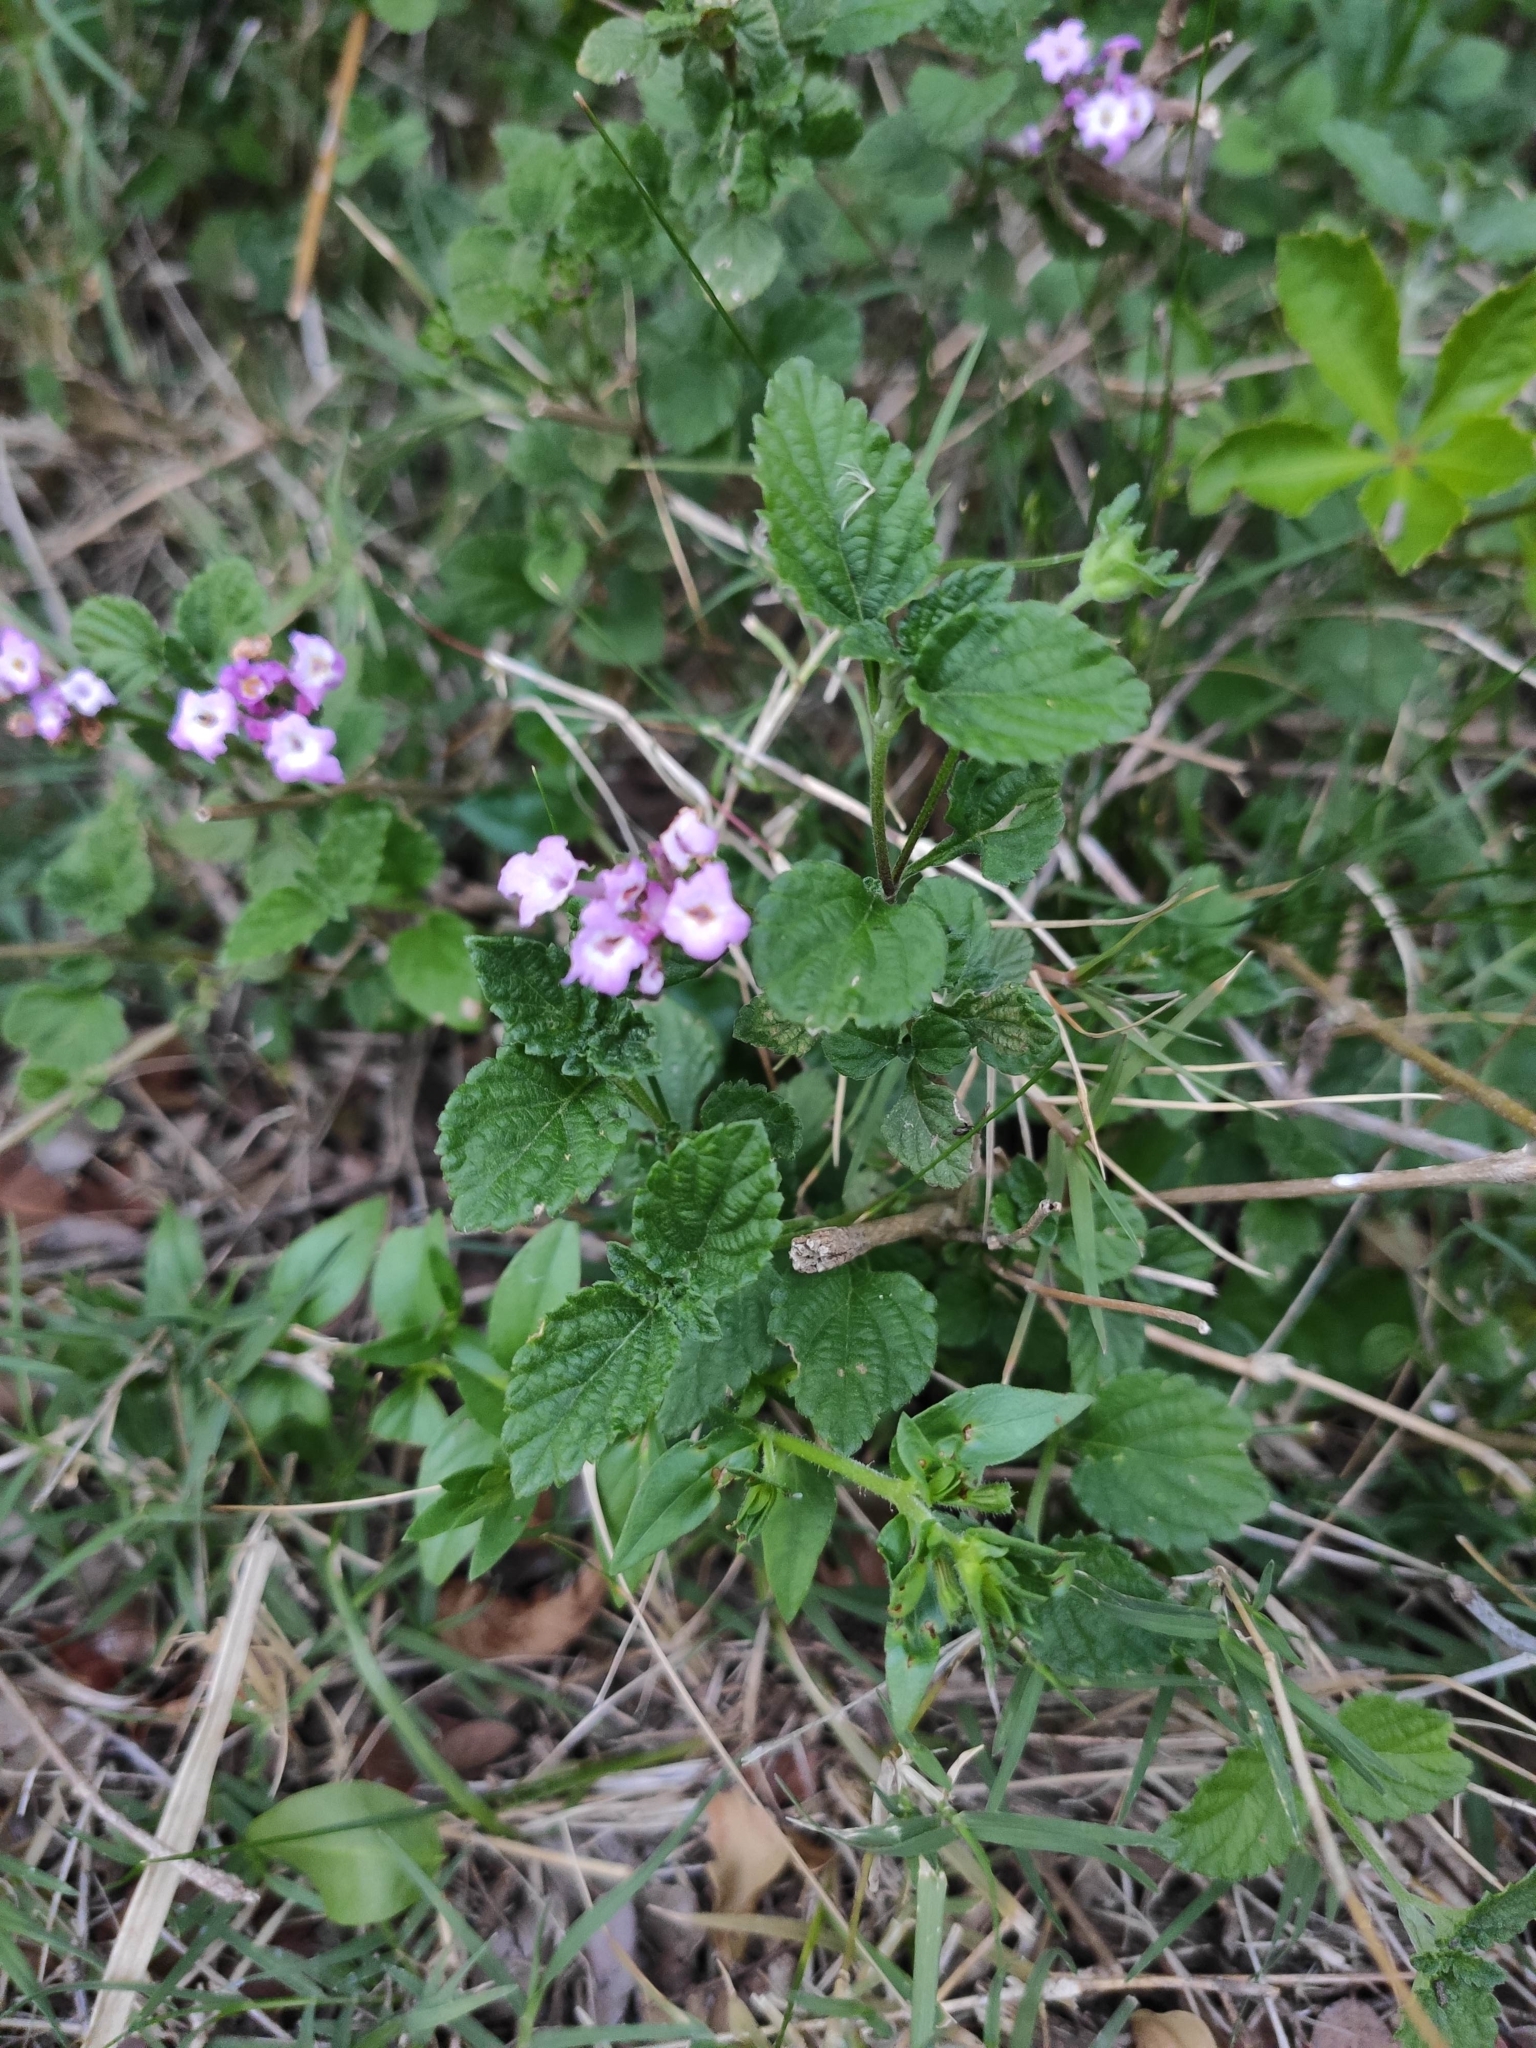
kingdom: Plantae
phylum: Tracheophyta
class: Magnoliopsida
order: Lamiales
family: Verbenaceae
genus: Lantana
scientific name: Lantana megapotamica
